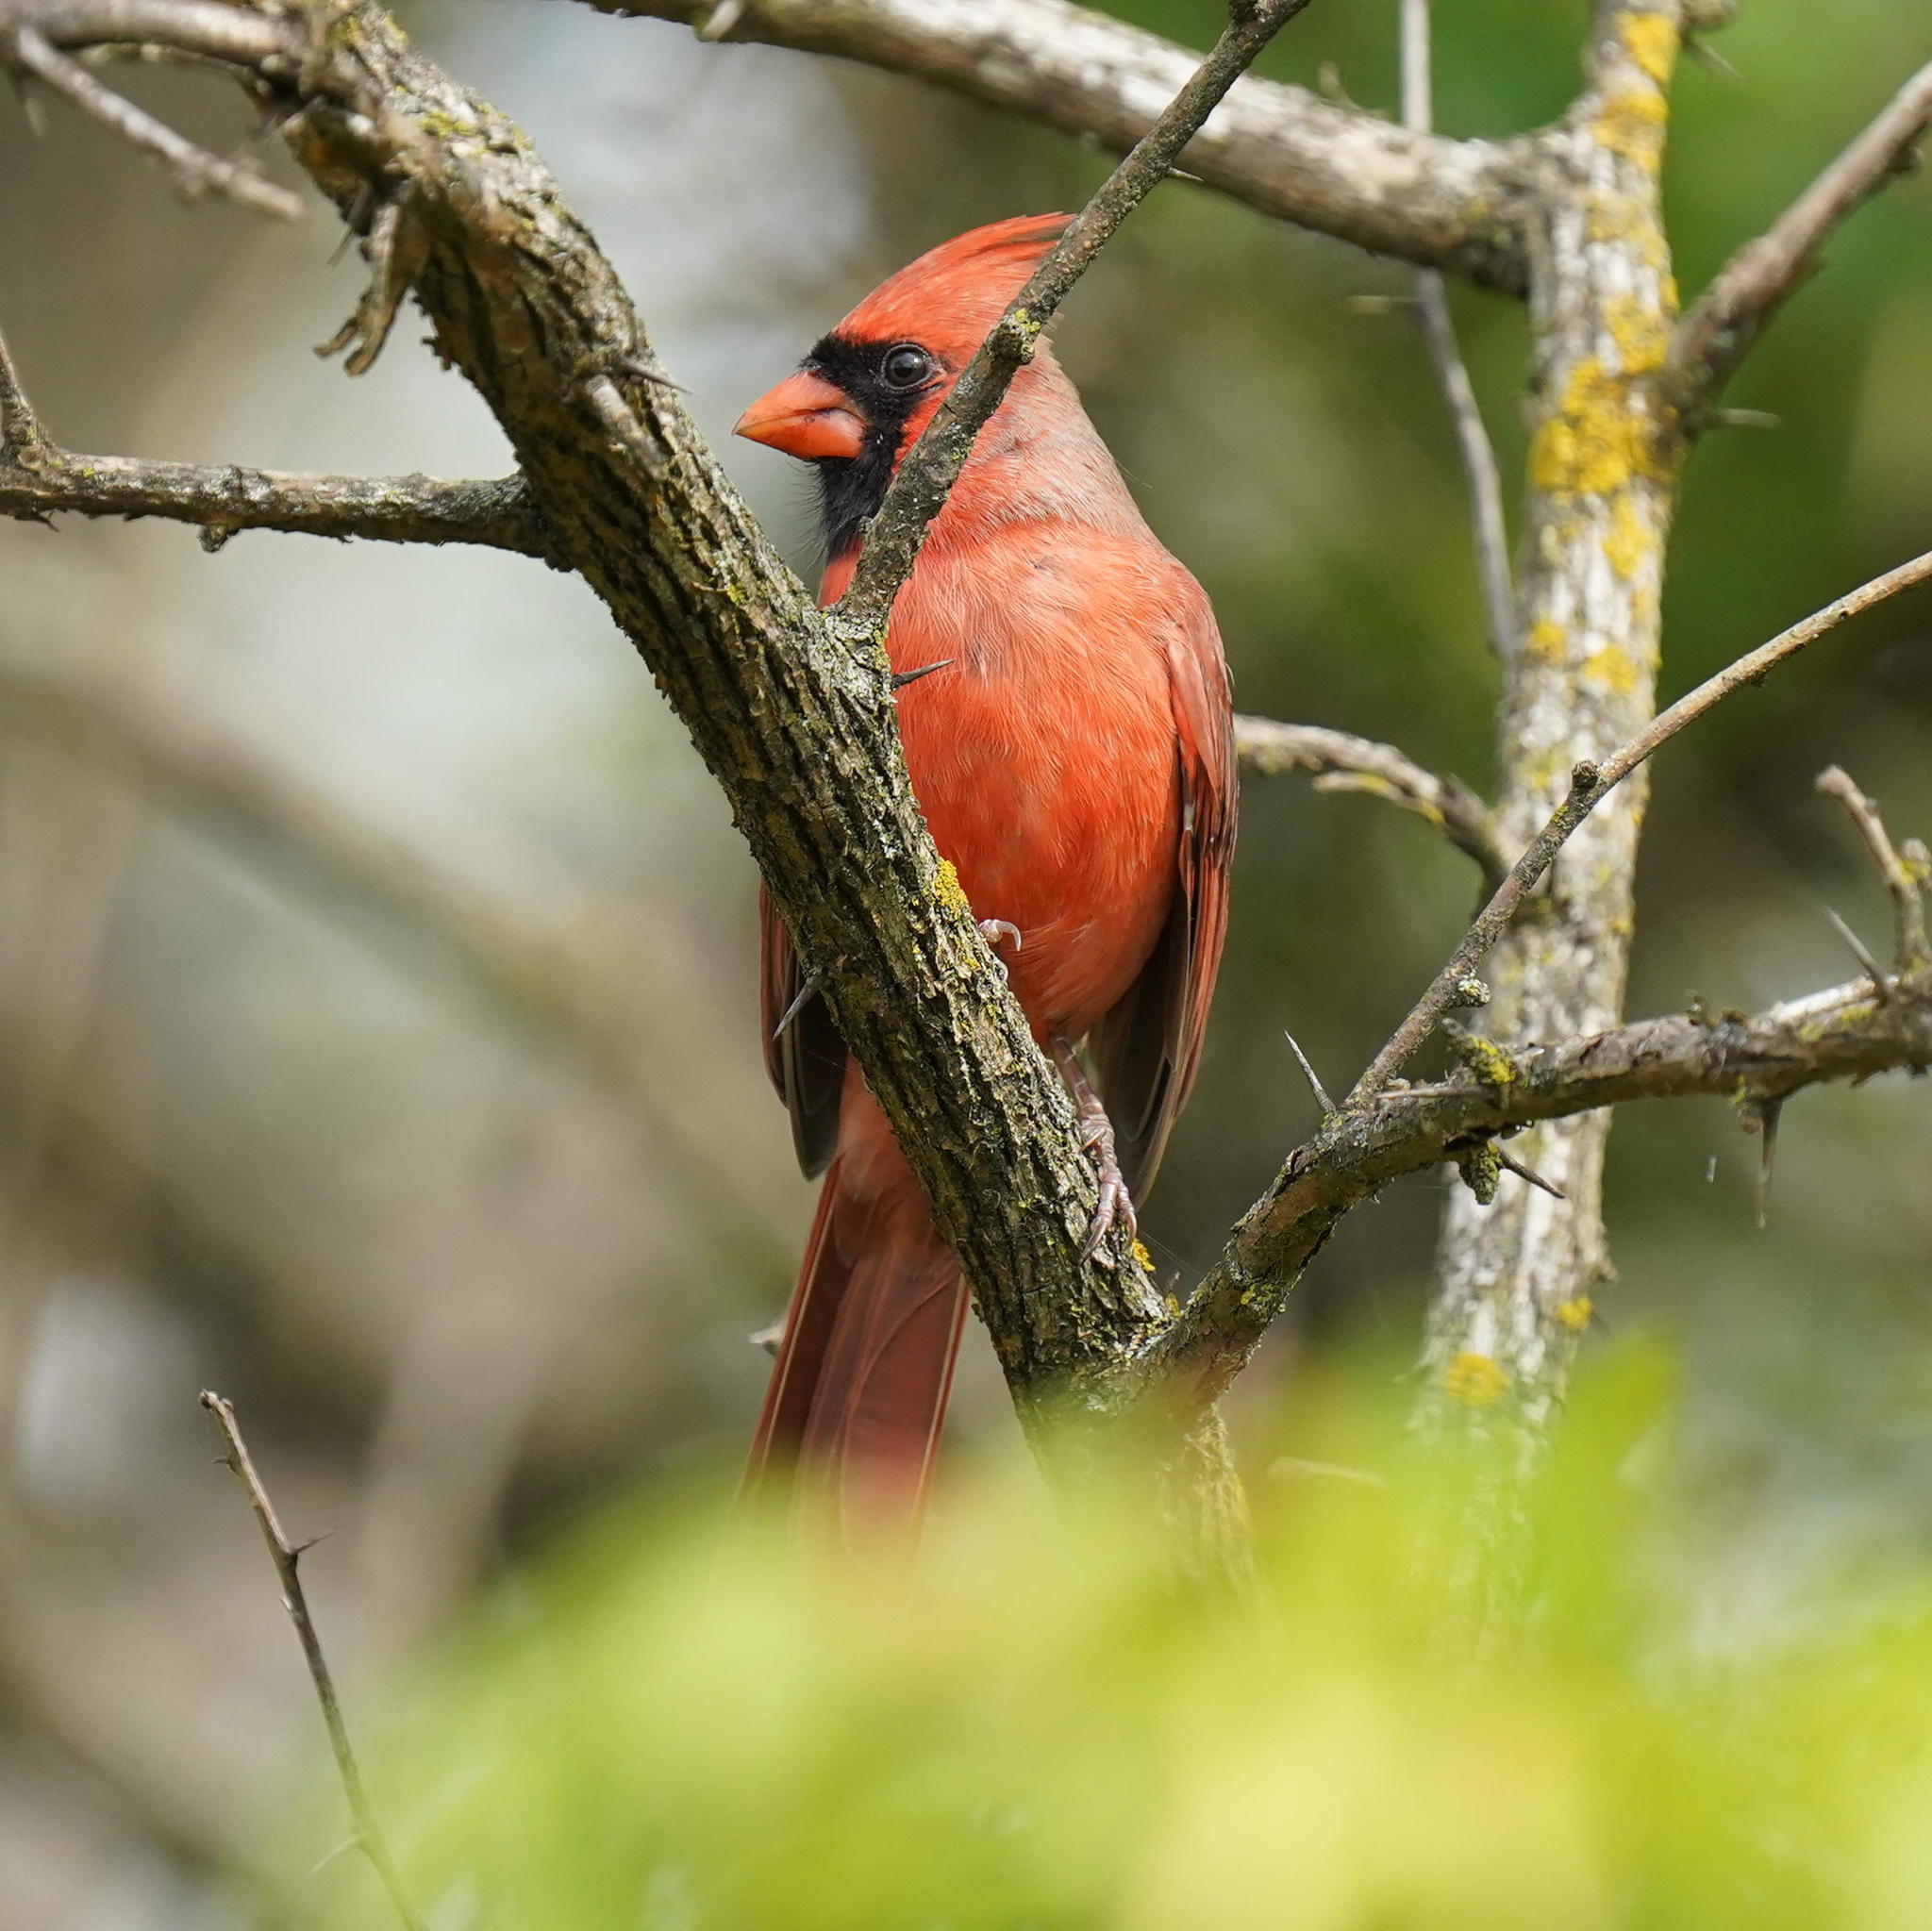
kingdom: Animalia
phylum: Chordata
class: Aves
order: Passeriformes
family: Cardinalidae
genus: Cardinalis
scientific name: Cardinalis cardinalis
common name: Northern cardinal
